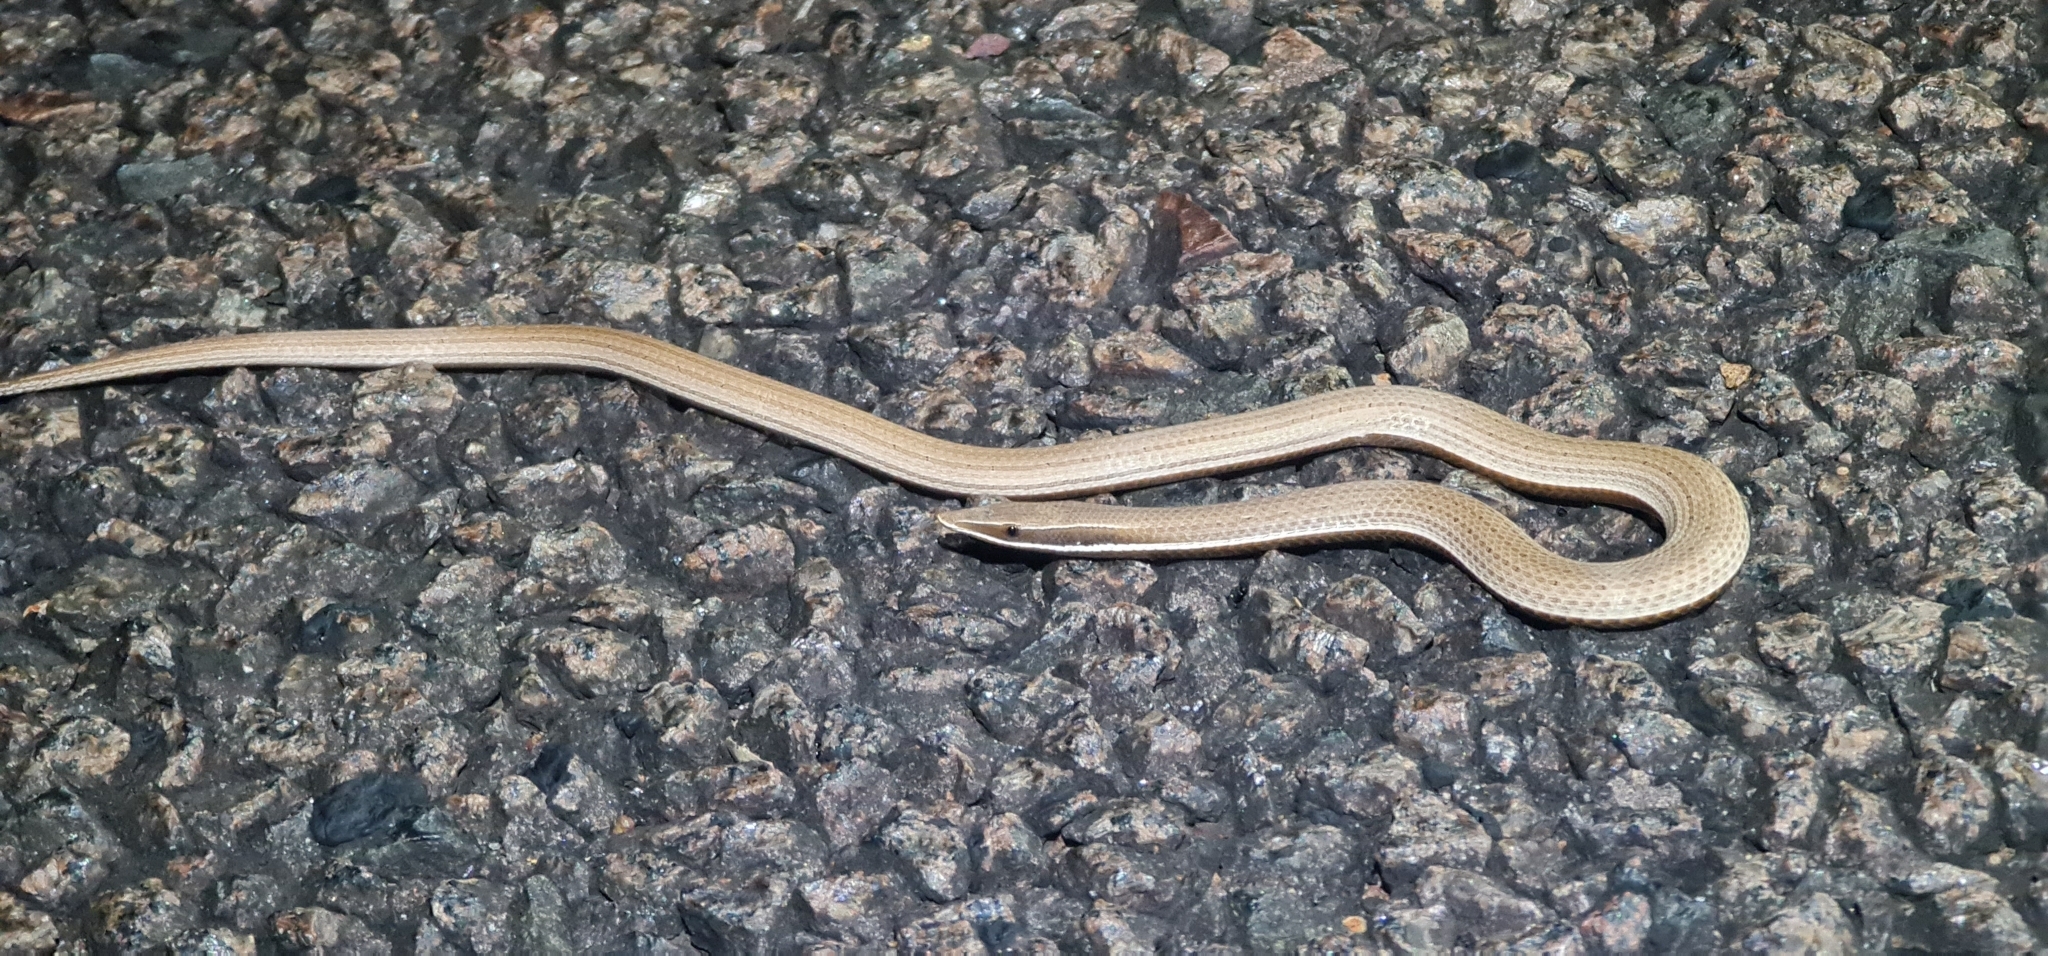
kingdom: Animalia
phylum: Chordata
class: Squamata
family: Pygopodidae
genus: Lialis
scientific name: Lialis burtonis
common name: Burton's legless lizard
